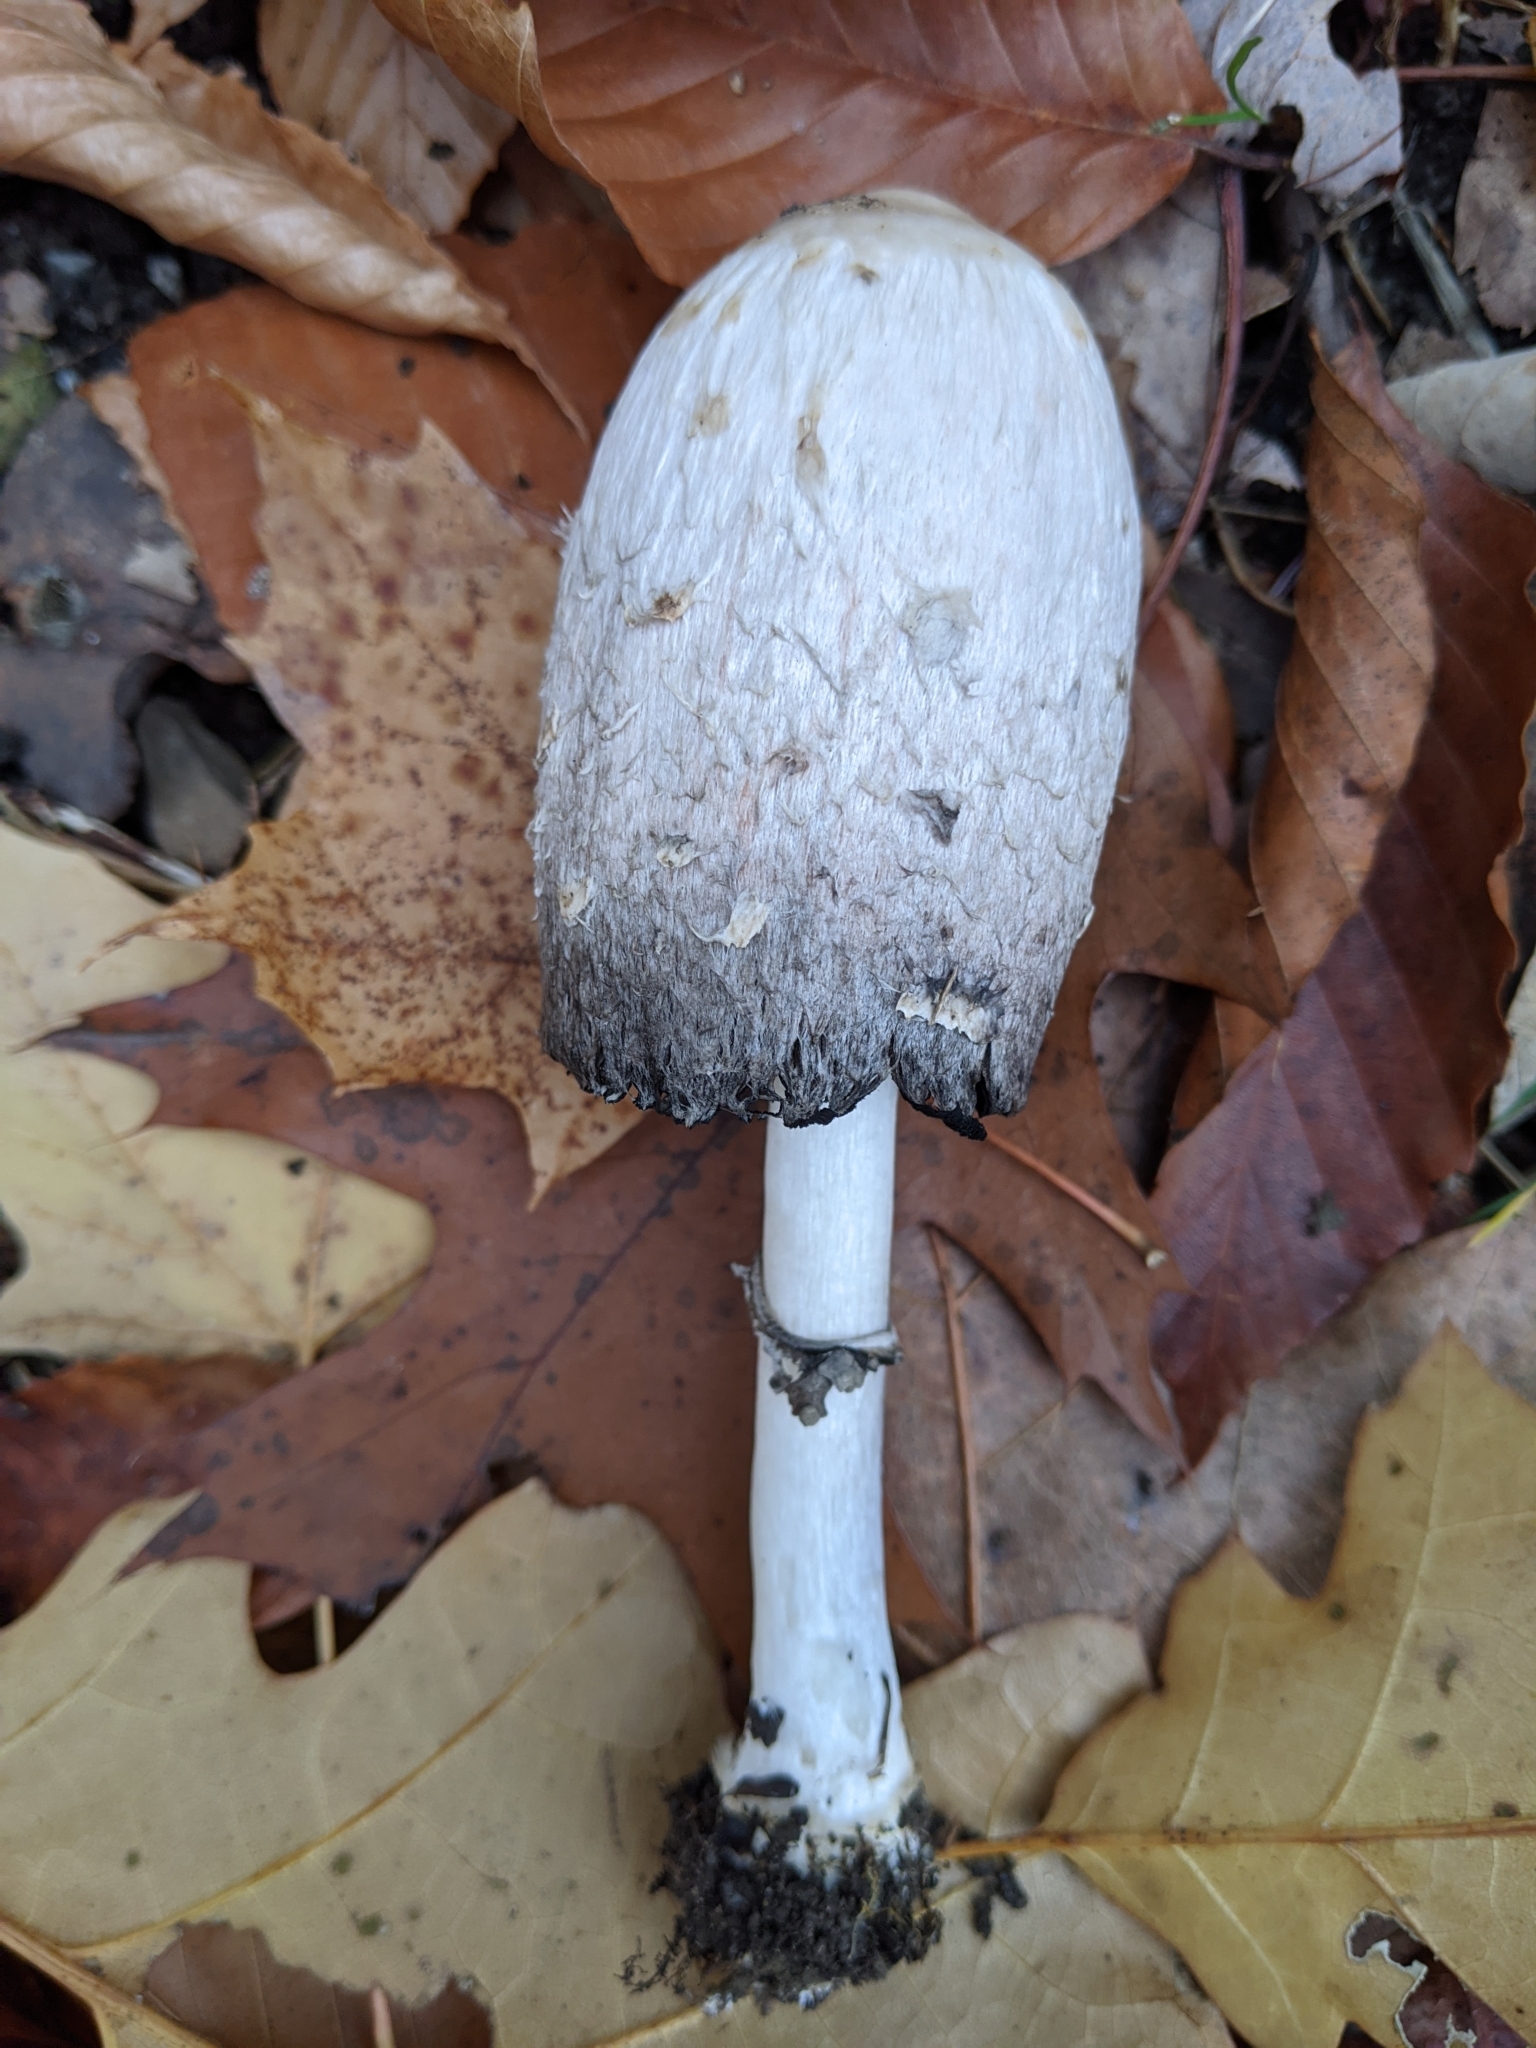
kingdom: Fungi
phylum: Basidiomycota
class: Agaricomycetes
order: Agaricales
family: Agaricaceae
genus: Coprinus
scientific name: Coprinus comatus
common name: Lawyer's wig
